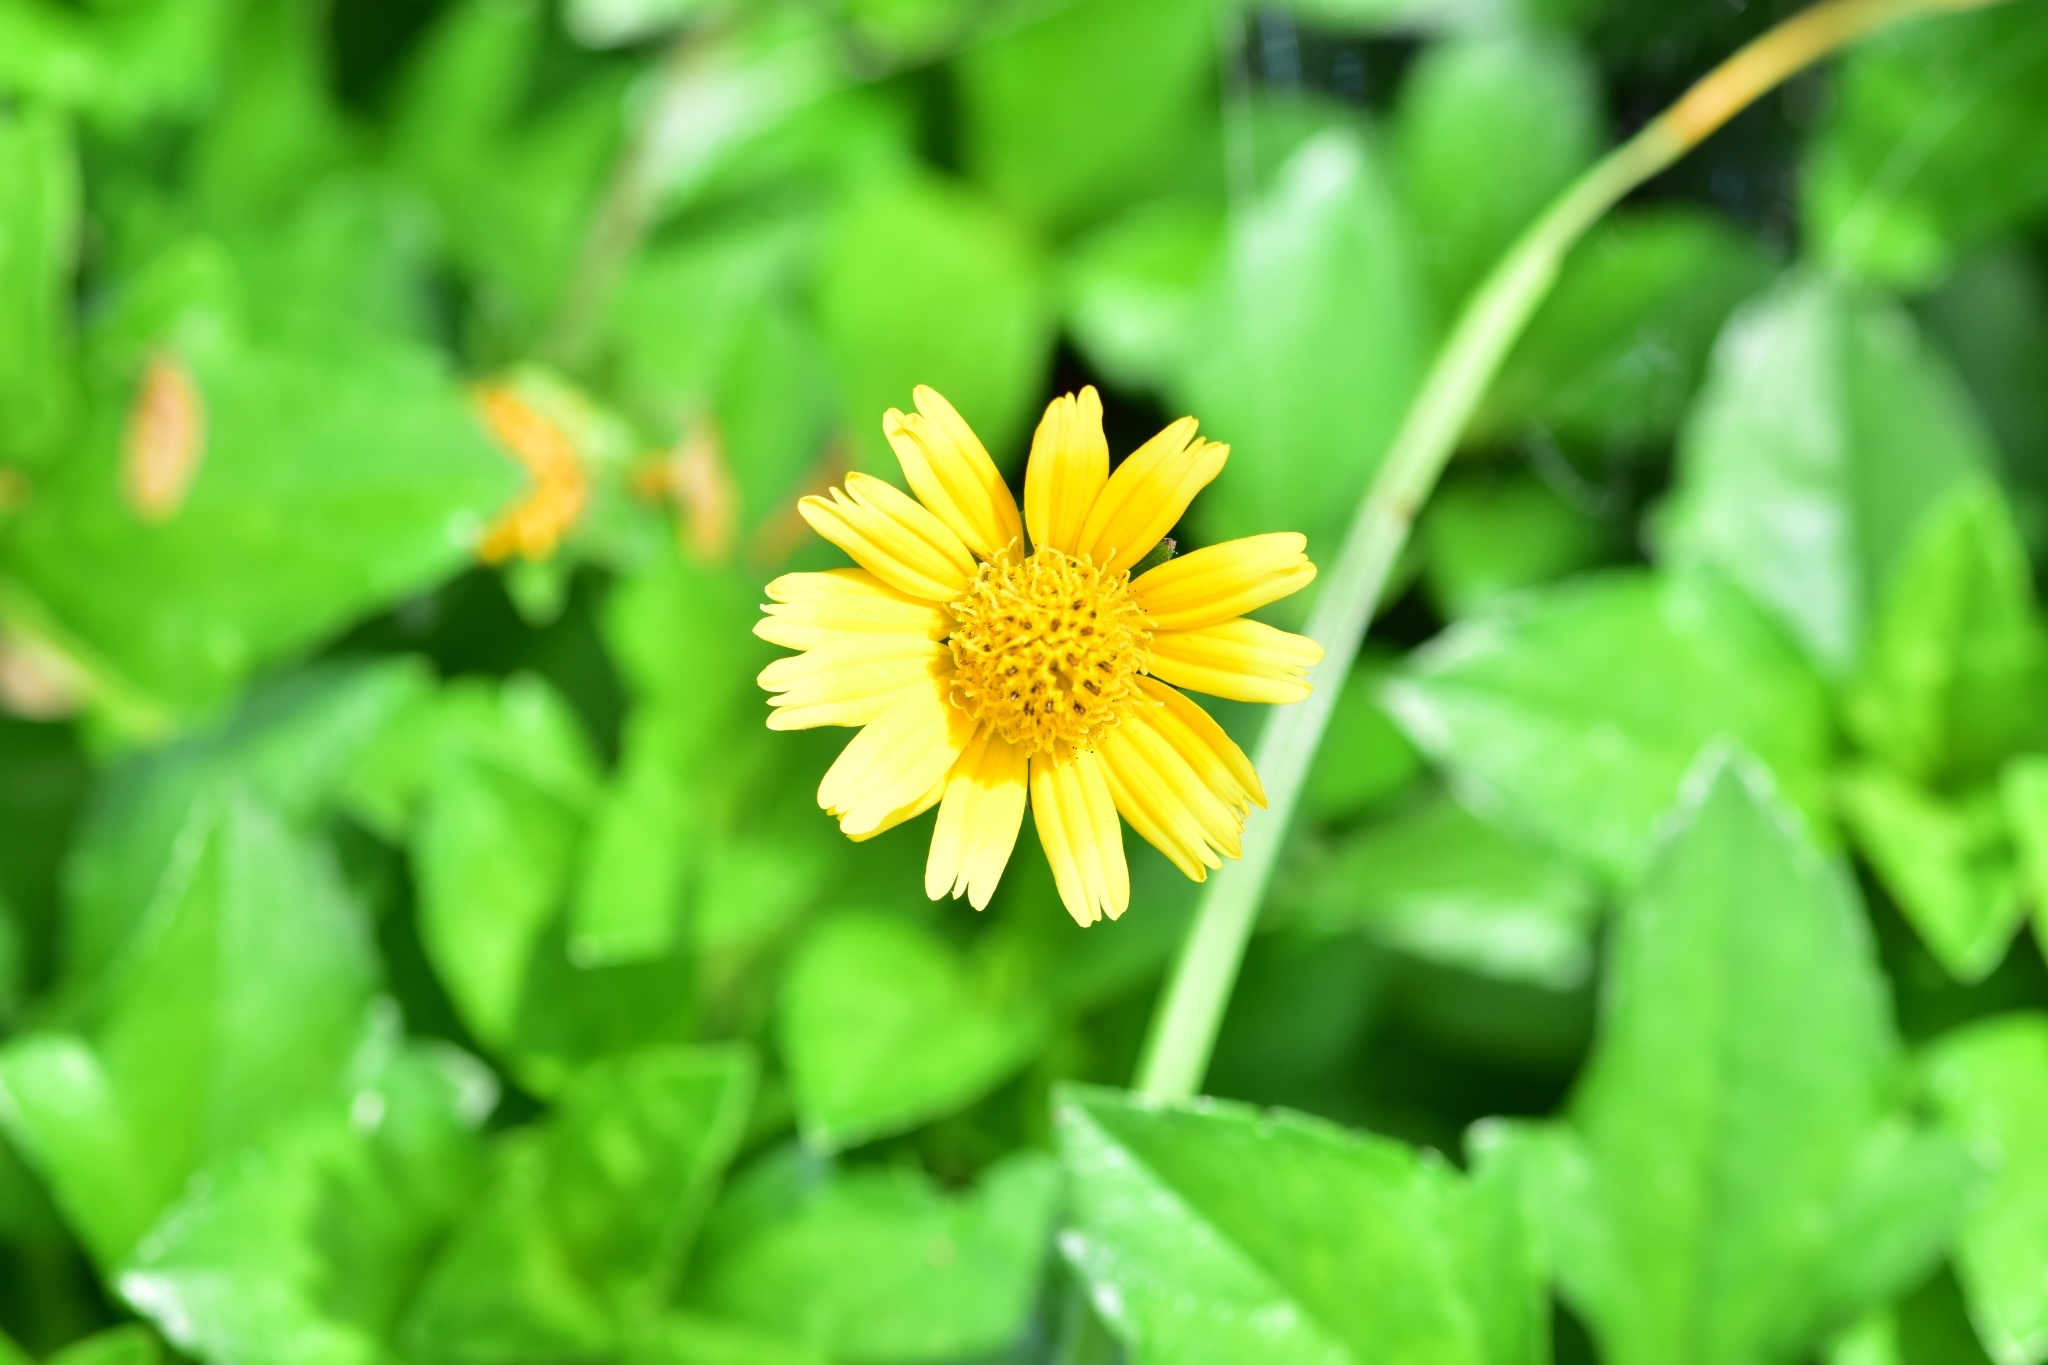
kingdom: Plantae
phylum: Tracheophyta
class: Magnoliopsida
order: Asterales
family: Asteraceae
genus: Sphagneticola
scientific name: Sphagneticola trilobata
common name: Bay biscayne creeping-oxeye
